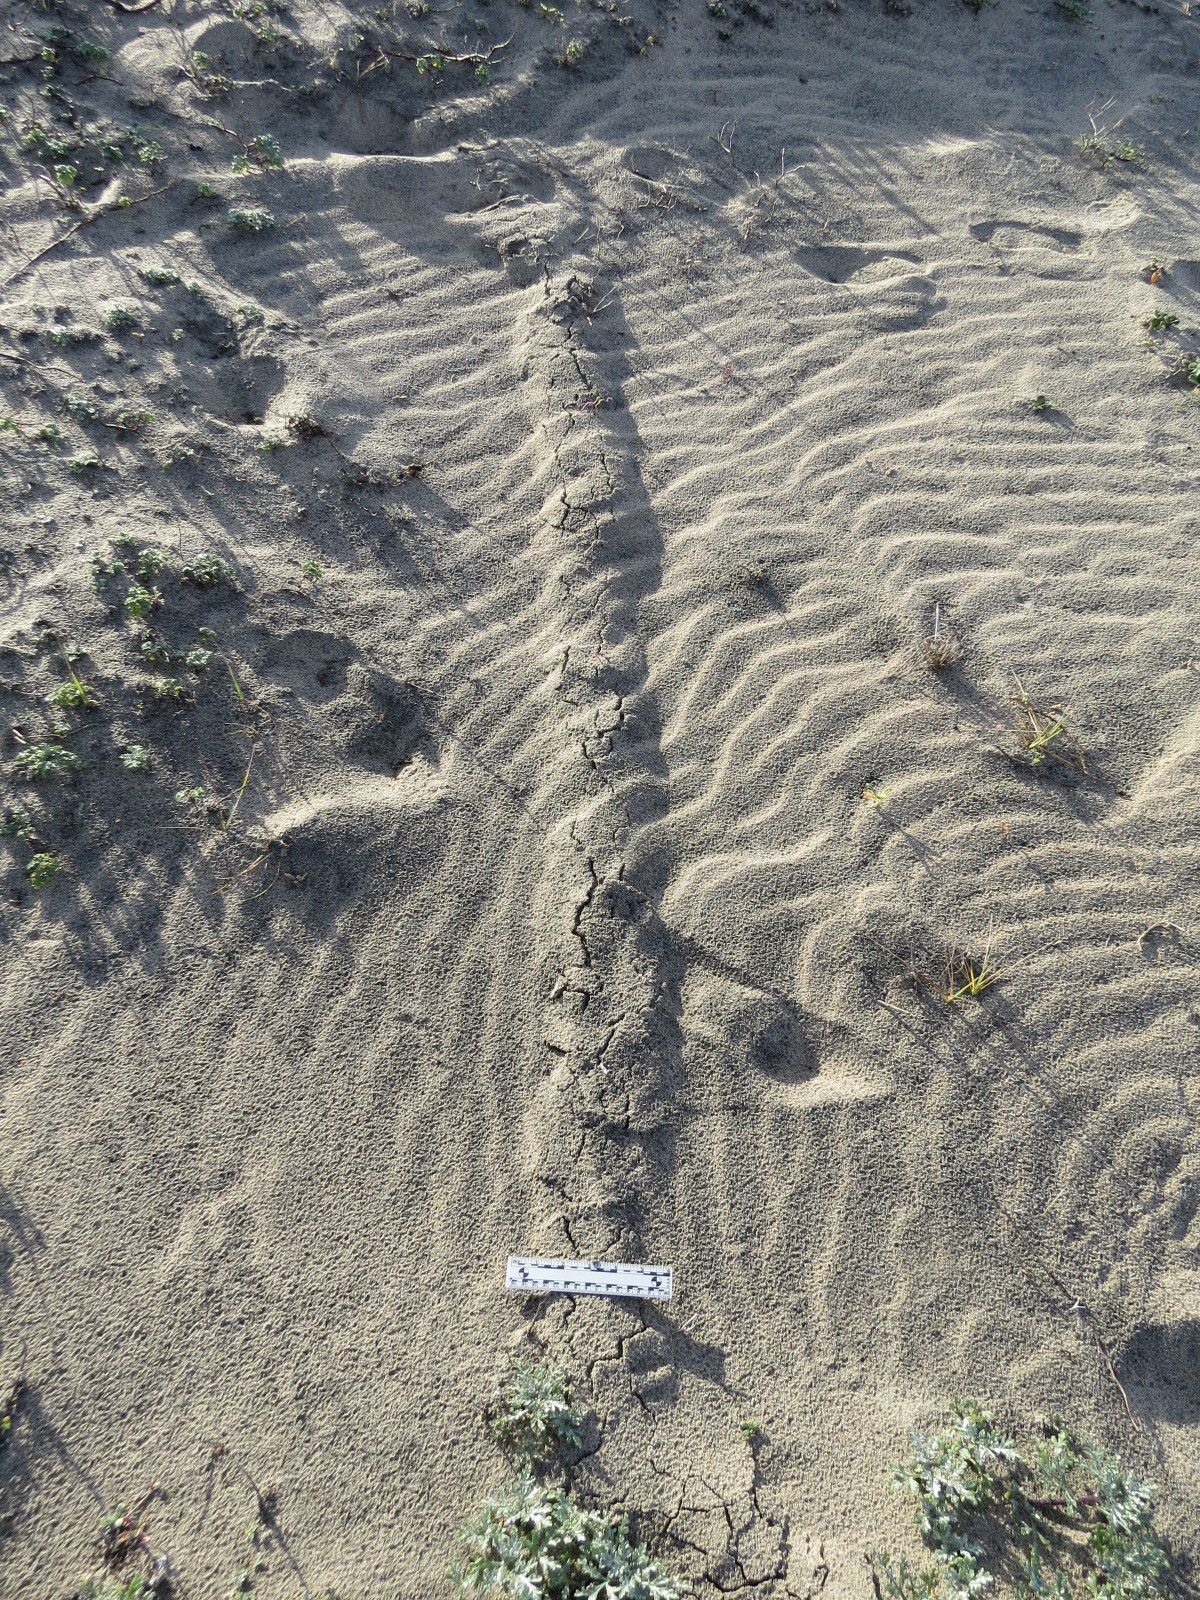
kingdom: Animalia
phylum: Chordata
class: Mammalia
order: Soricomorpha
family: Talpidae
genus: Scapanus
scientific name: Scapanus latimanus
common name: Broad-footed mole
